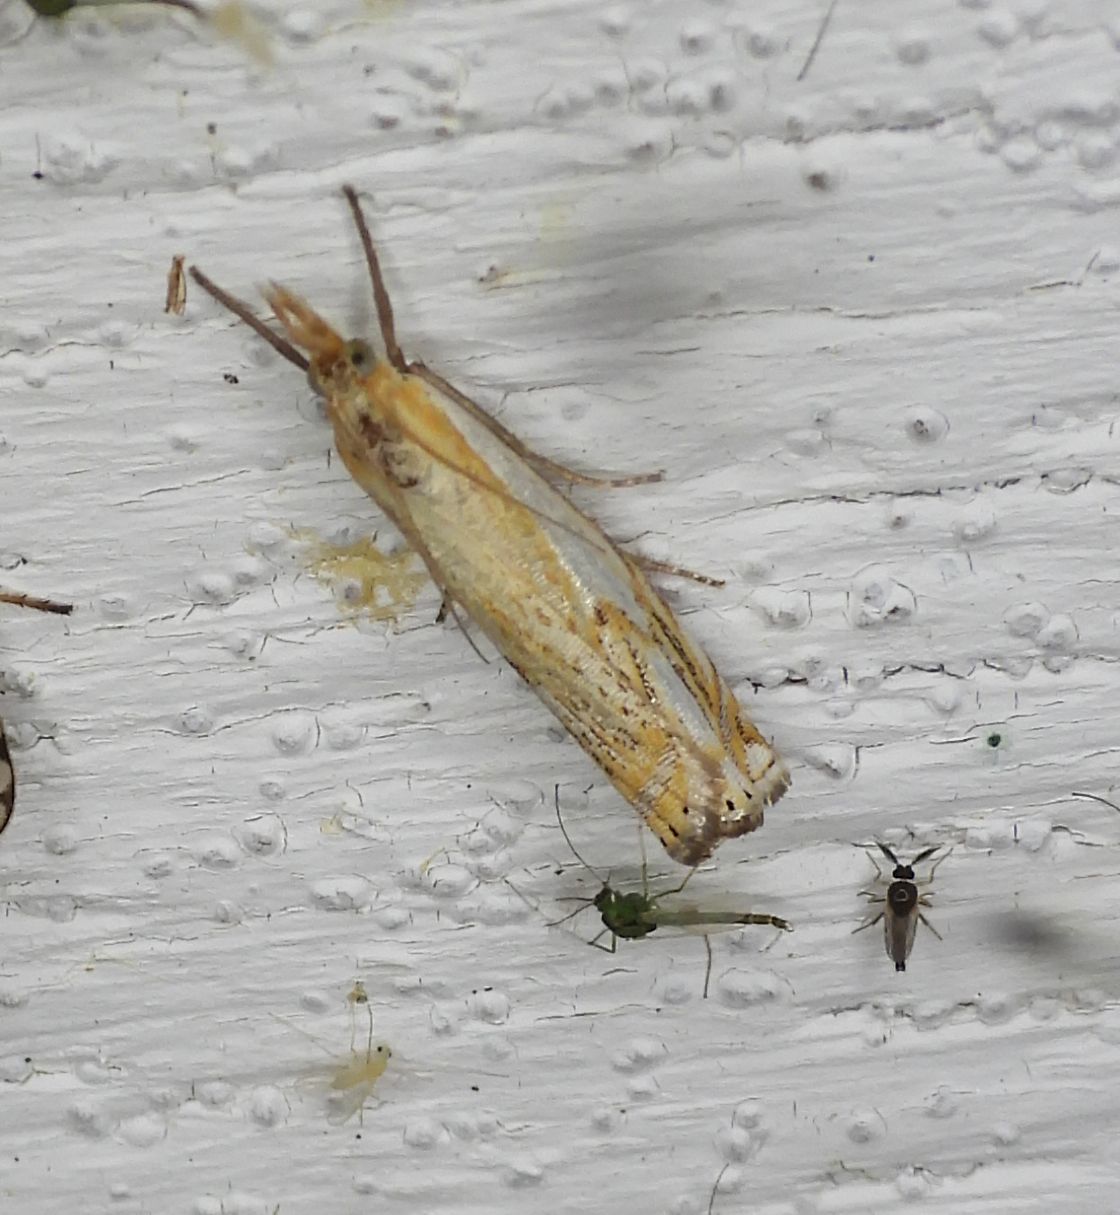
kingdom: Animalia
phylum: Arthropoda
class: Insecta
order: Lepidoptera
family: Crambidae
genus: Crambus
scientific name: Crambus agitatellus
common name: Double-banded grass-veneer
